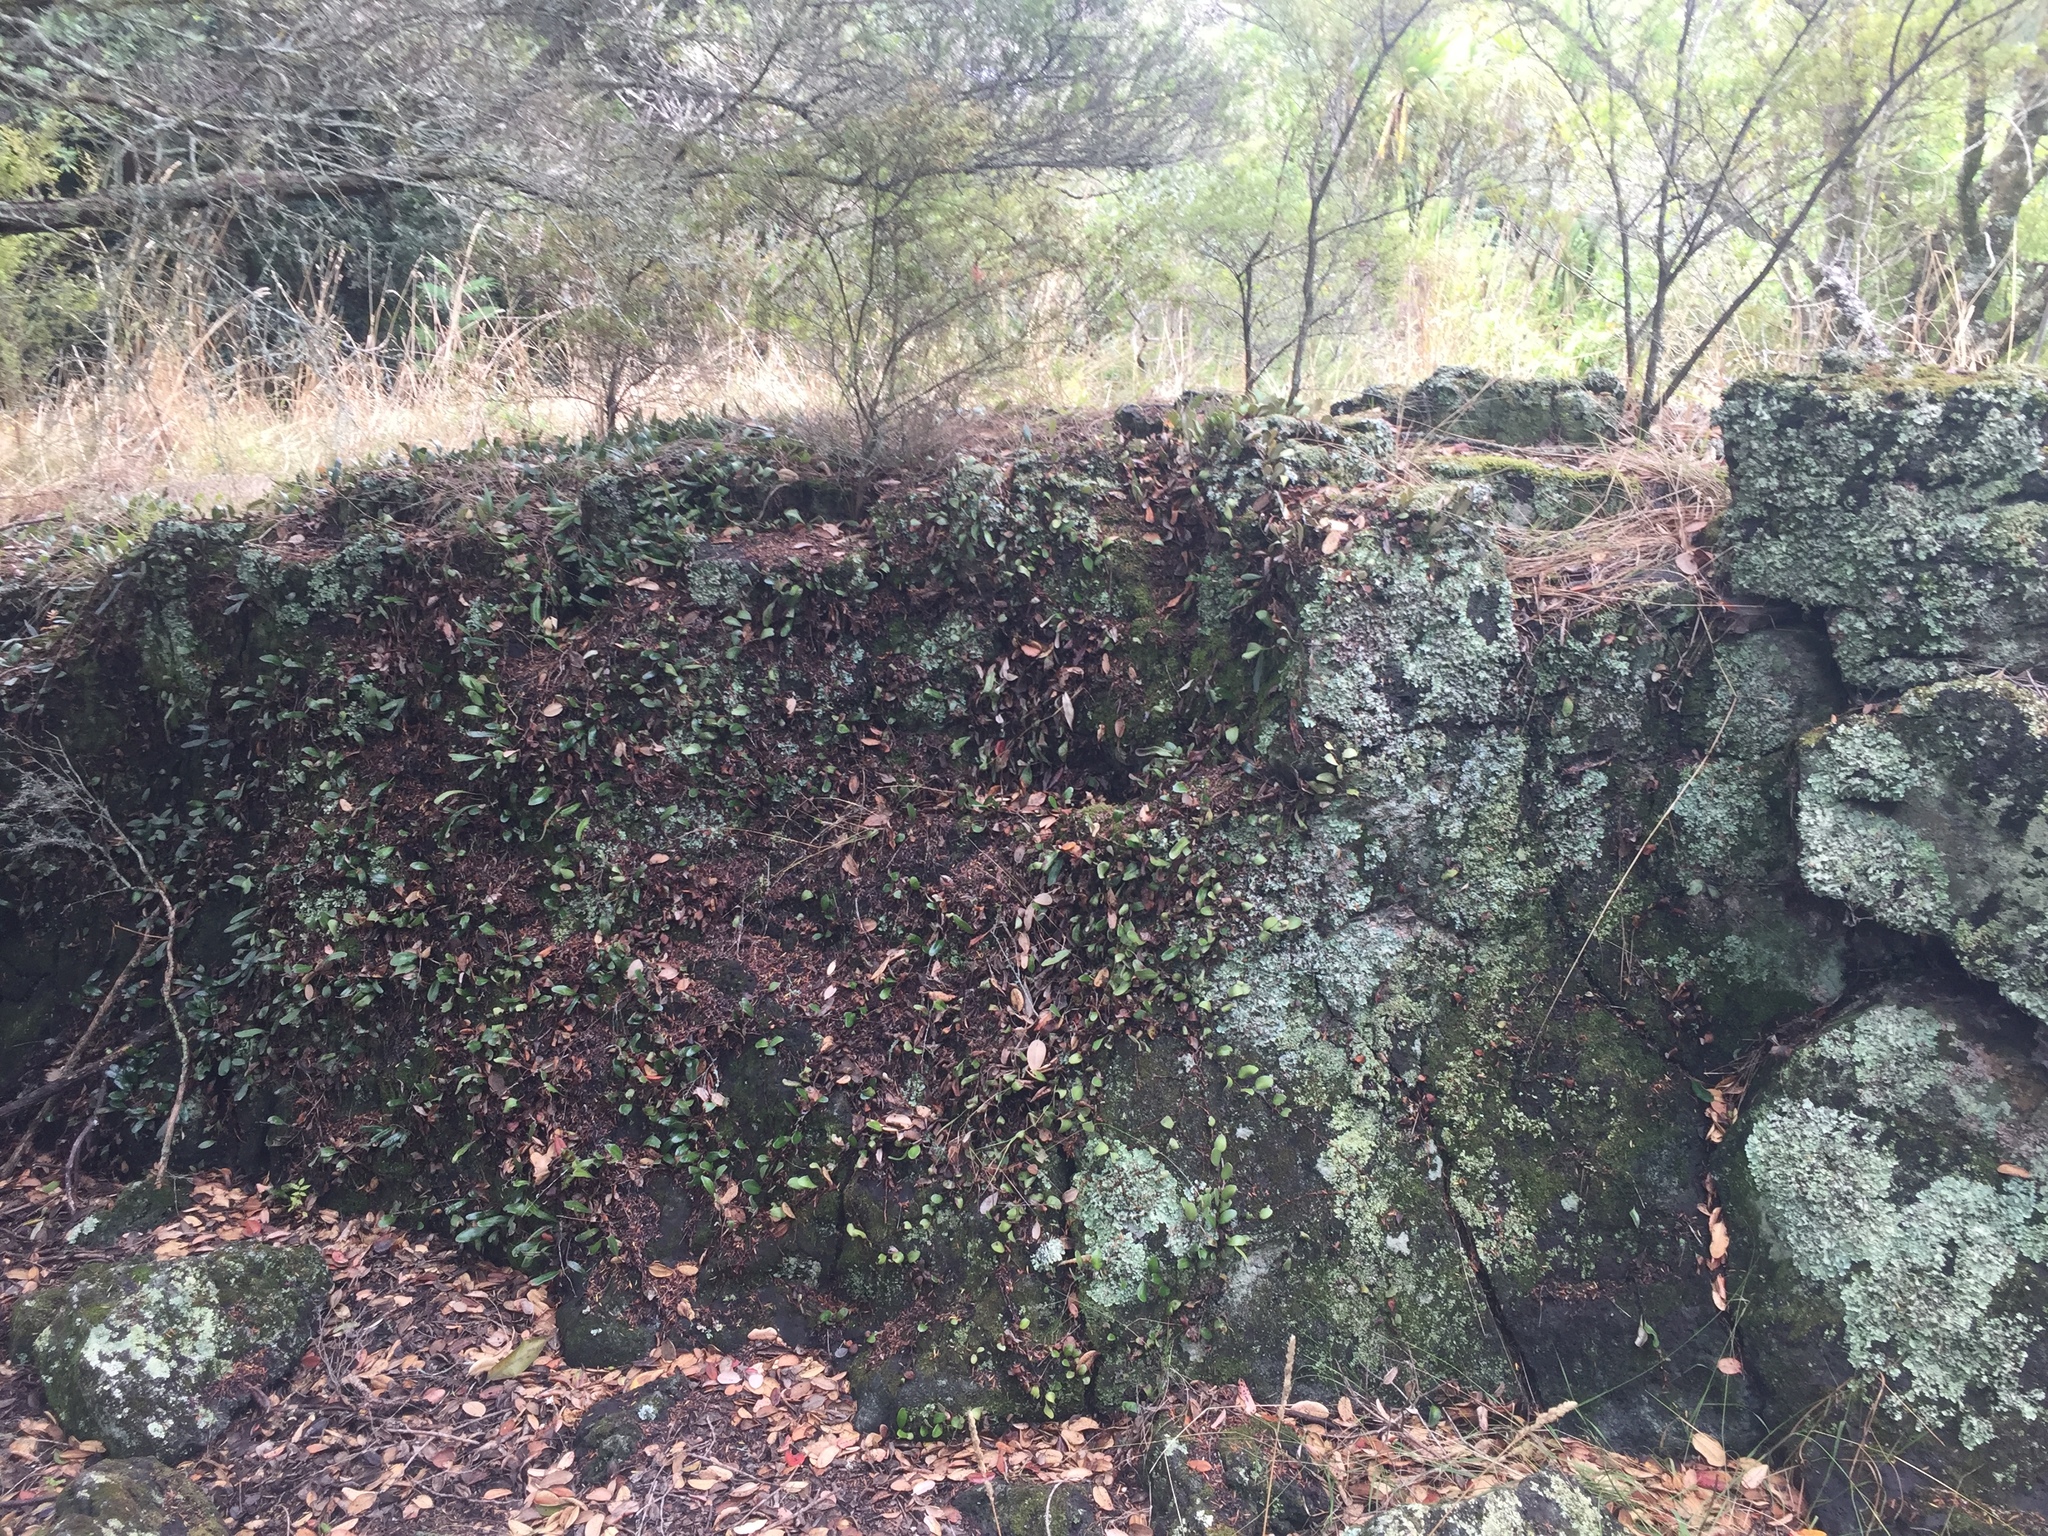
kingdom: Fungi
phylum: Ascomycota
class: Eurotiomycetes
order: Verrucariales
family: Verrucariaceae
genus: Normandina
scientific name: Normandina pulchella
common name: Elf ears lichen
